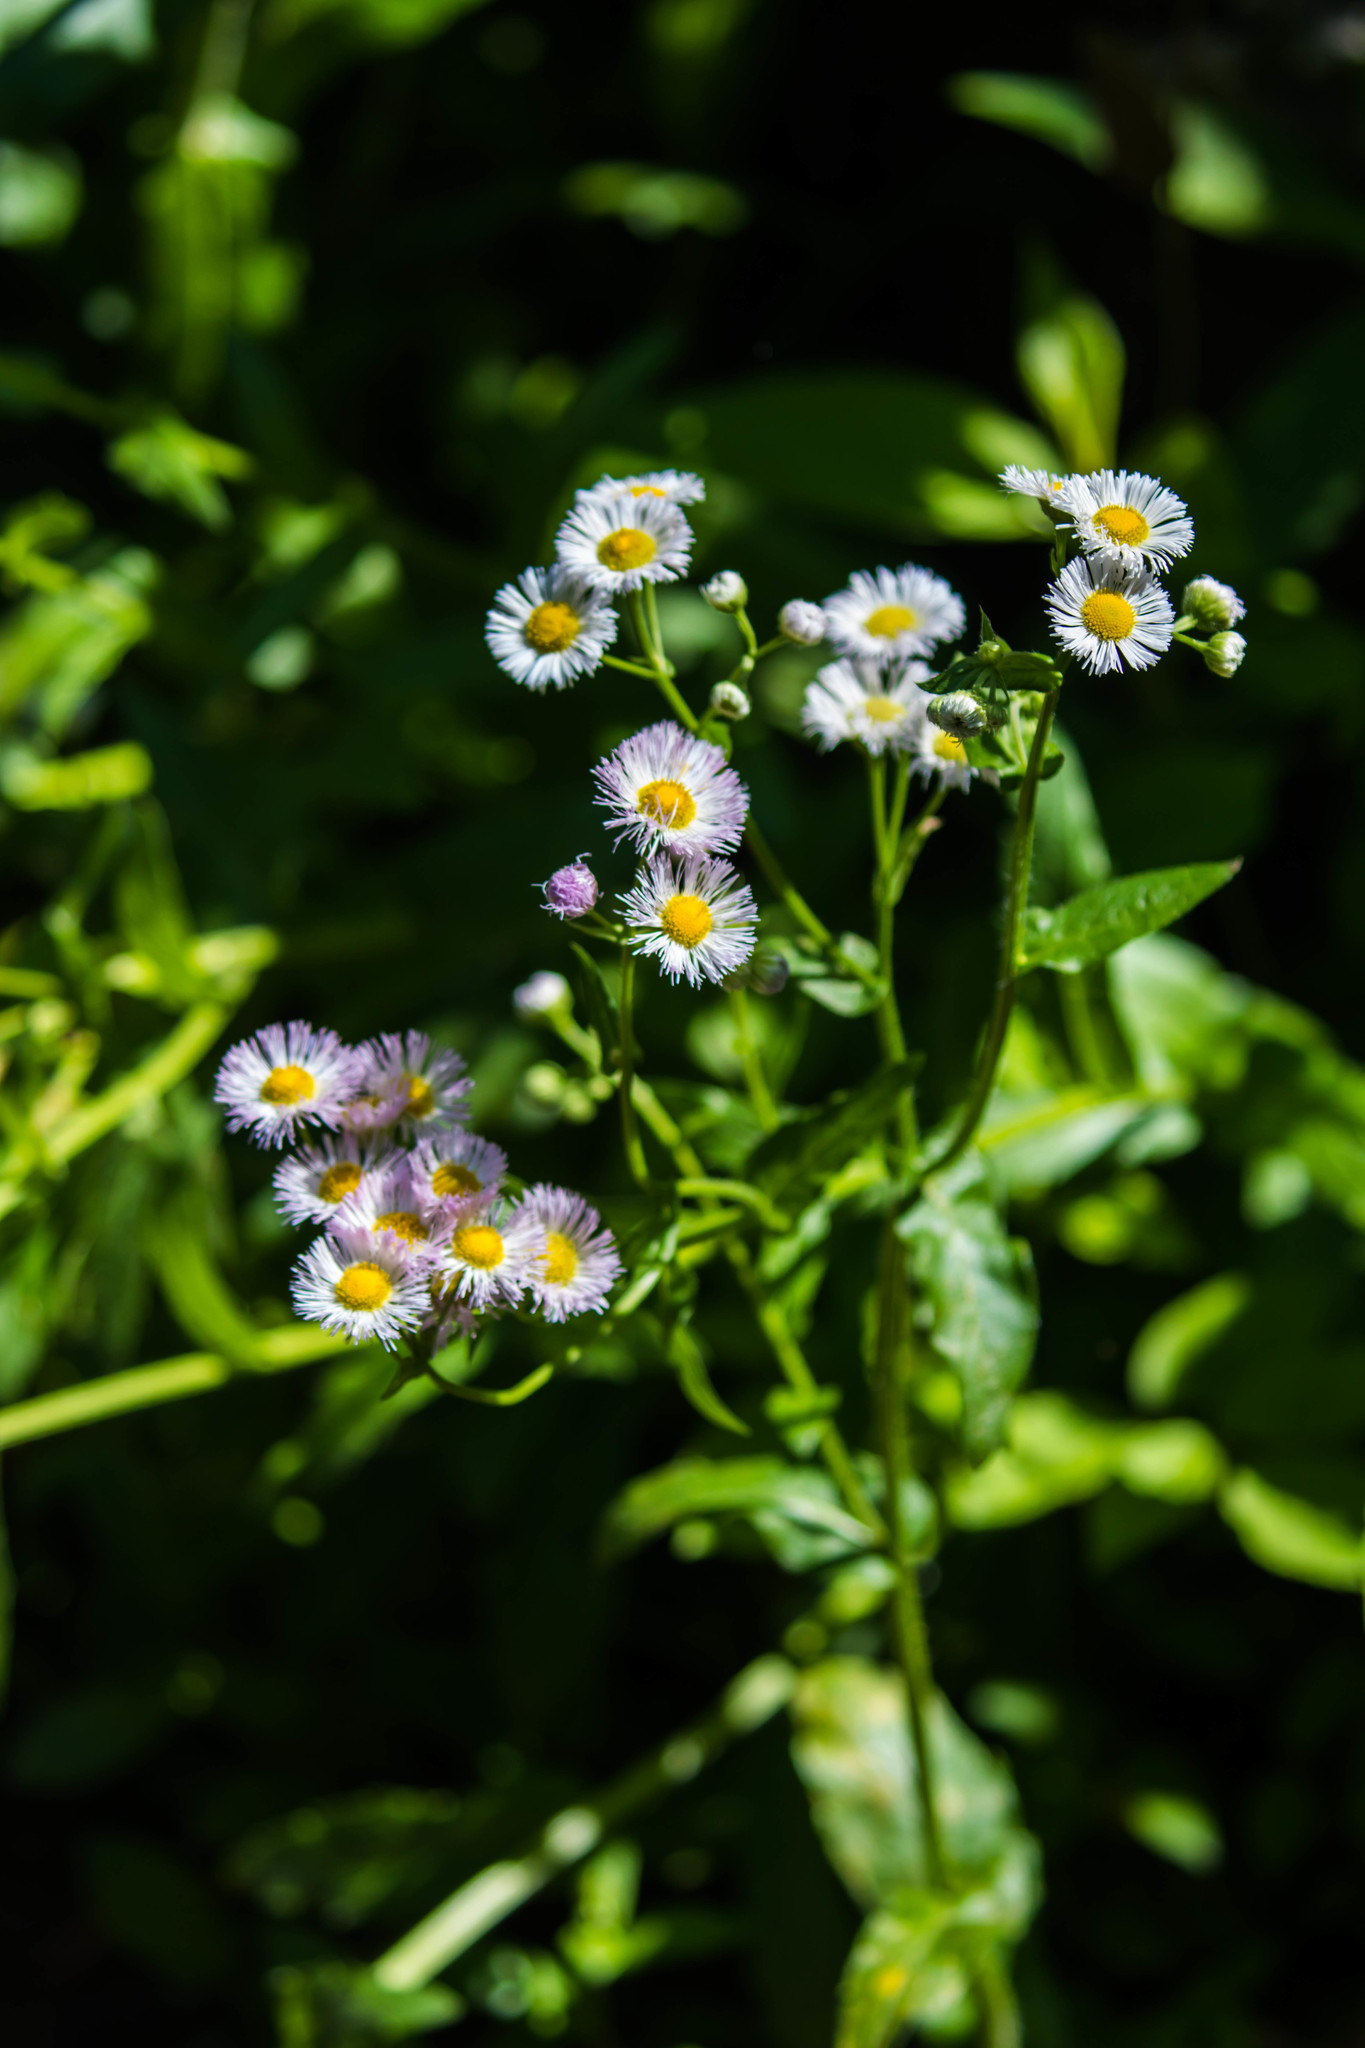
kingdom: Plantae
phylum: Tracheophyta
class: Magnoliopsida
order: Asterales
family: Asteraceae
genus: Erigeron
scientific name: Erigeron philadelphicus
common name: Robin's-plantain
